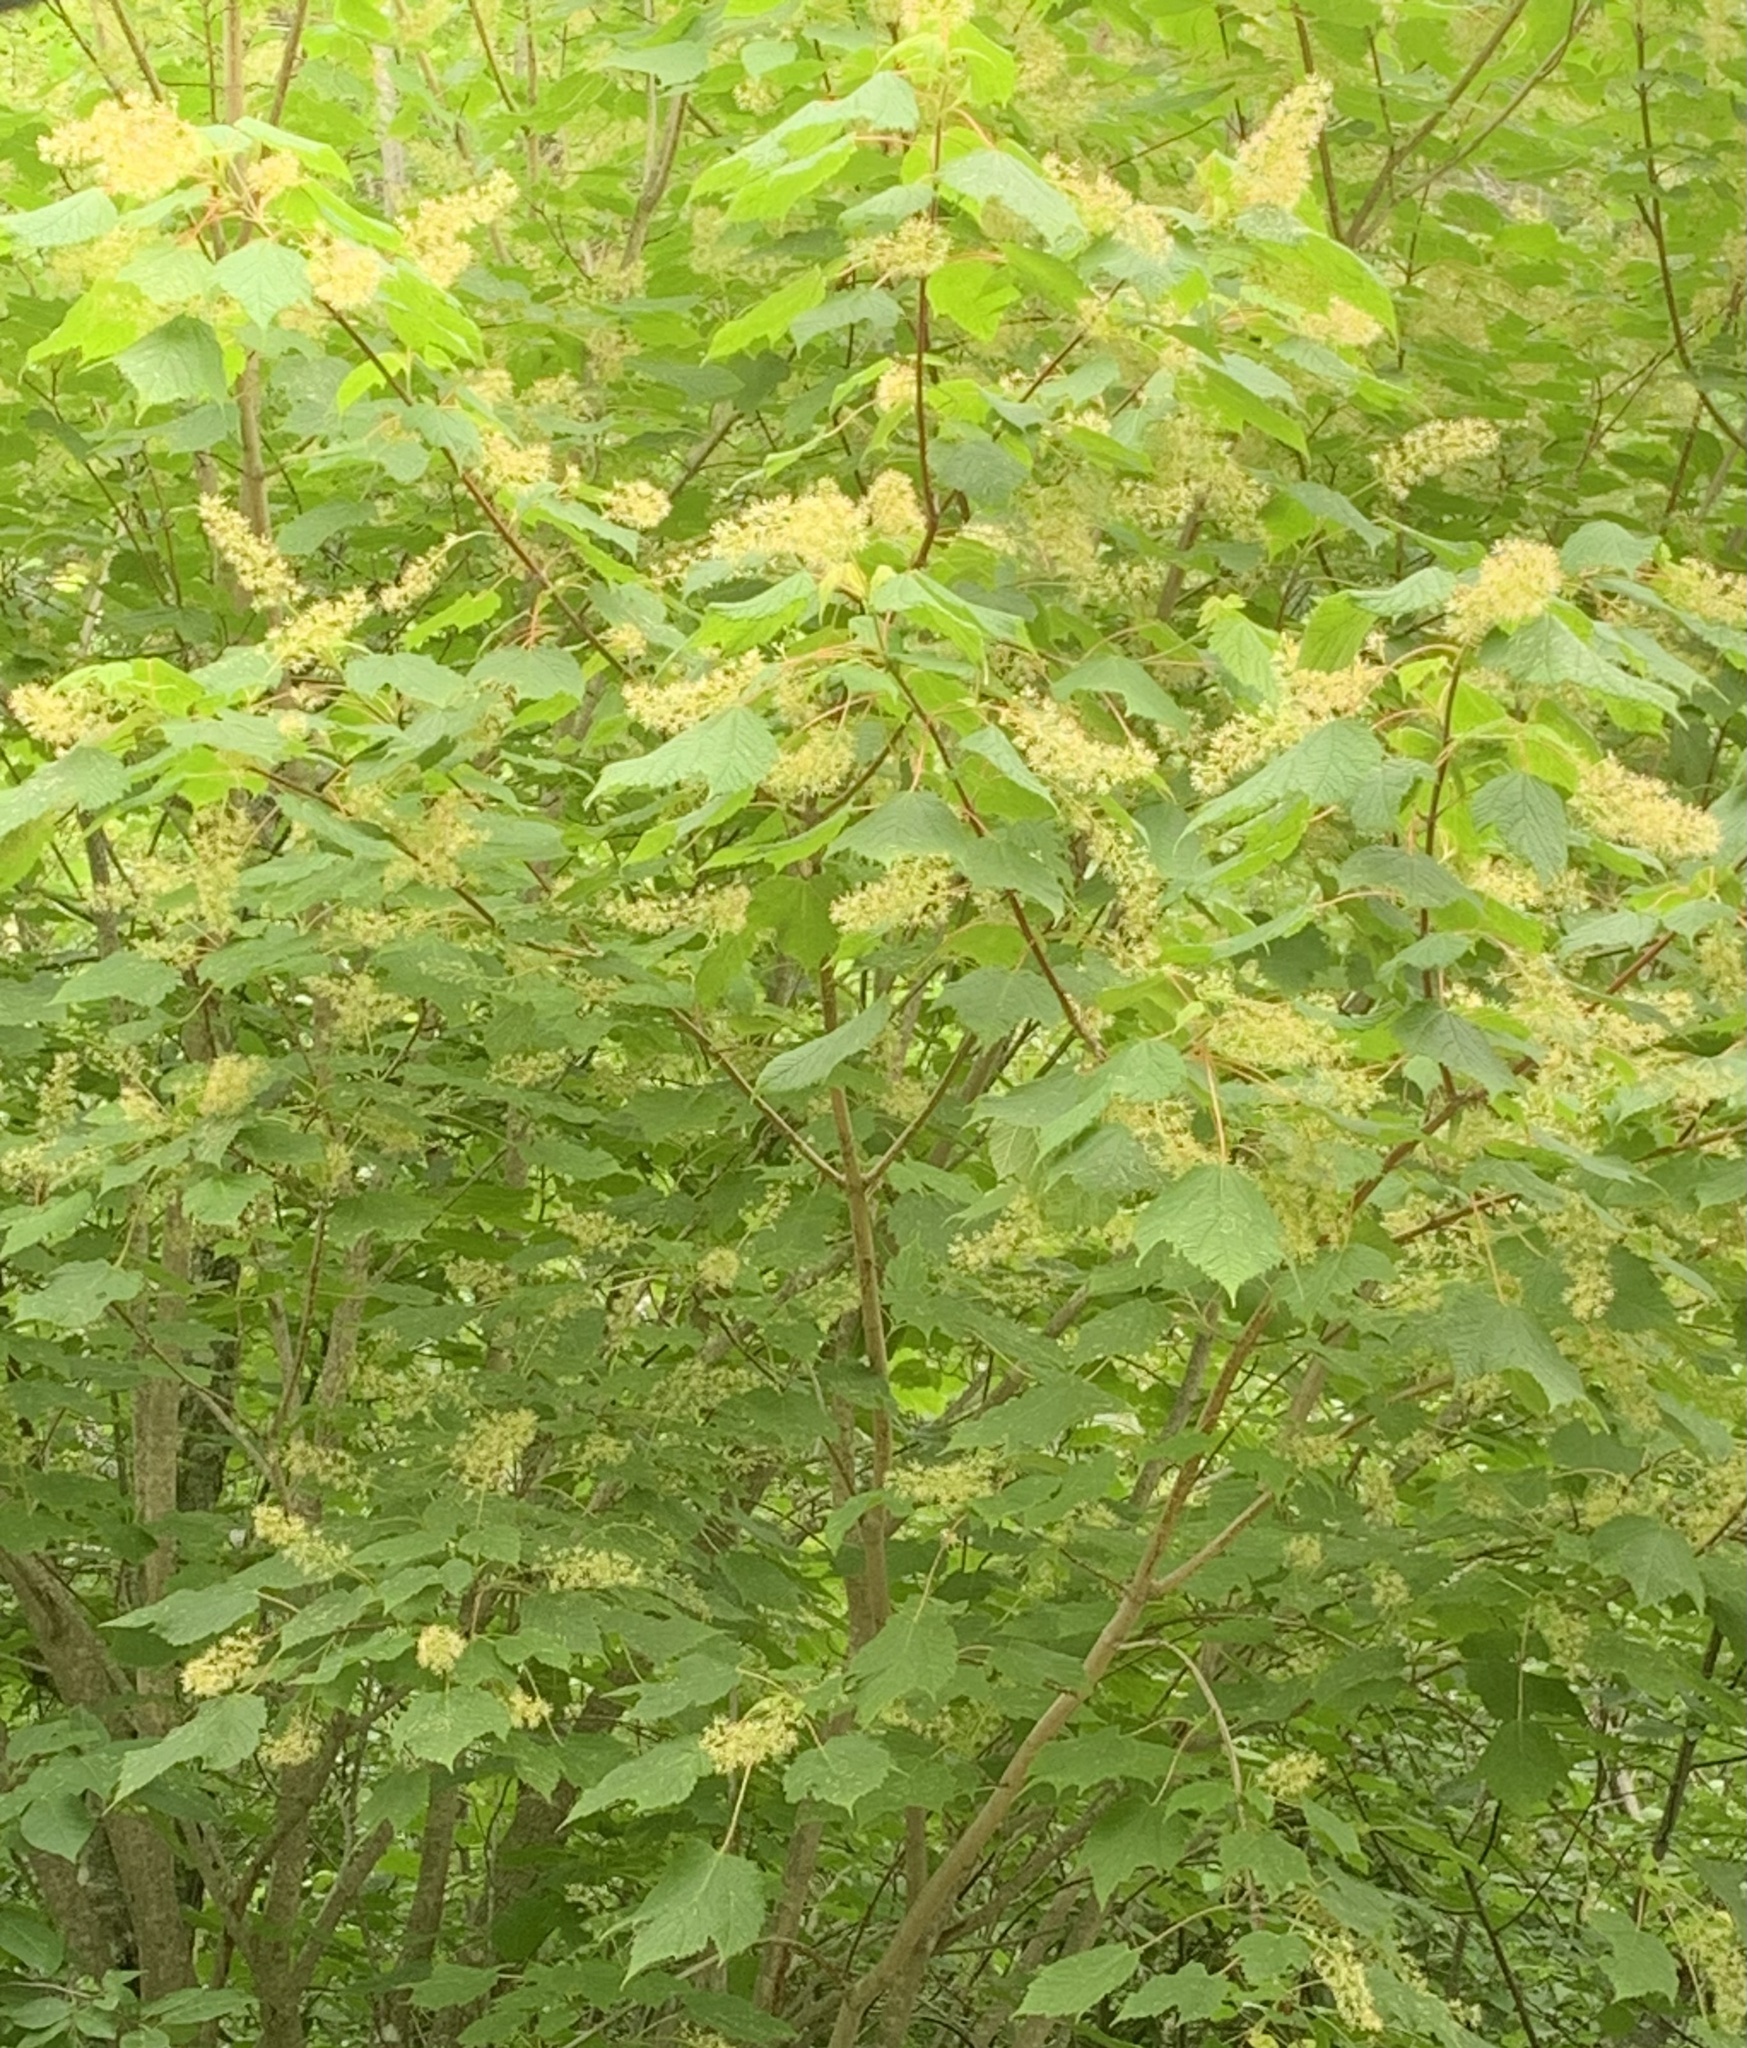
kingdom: Plantae
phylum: Tracheophyta
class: Magnoliopsida
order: Sapindales
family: Sapindaceae
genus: Acer
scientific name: Acer spicatum
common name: Mountain maple
